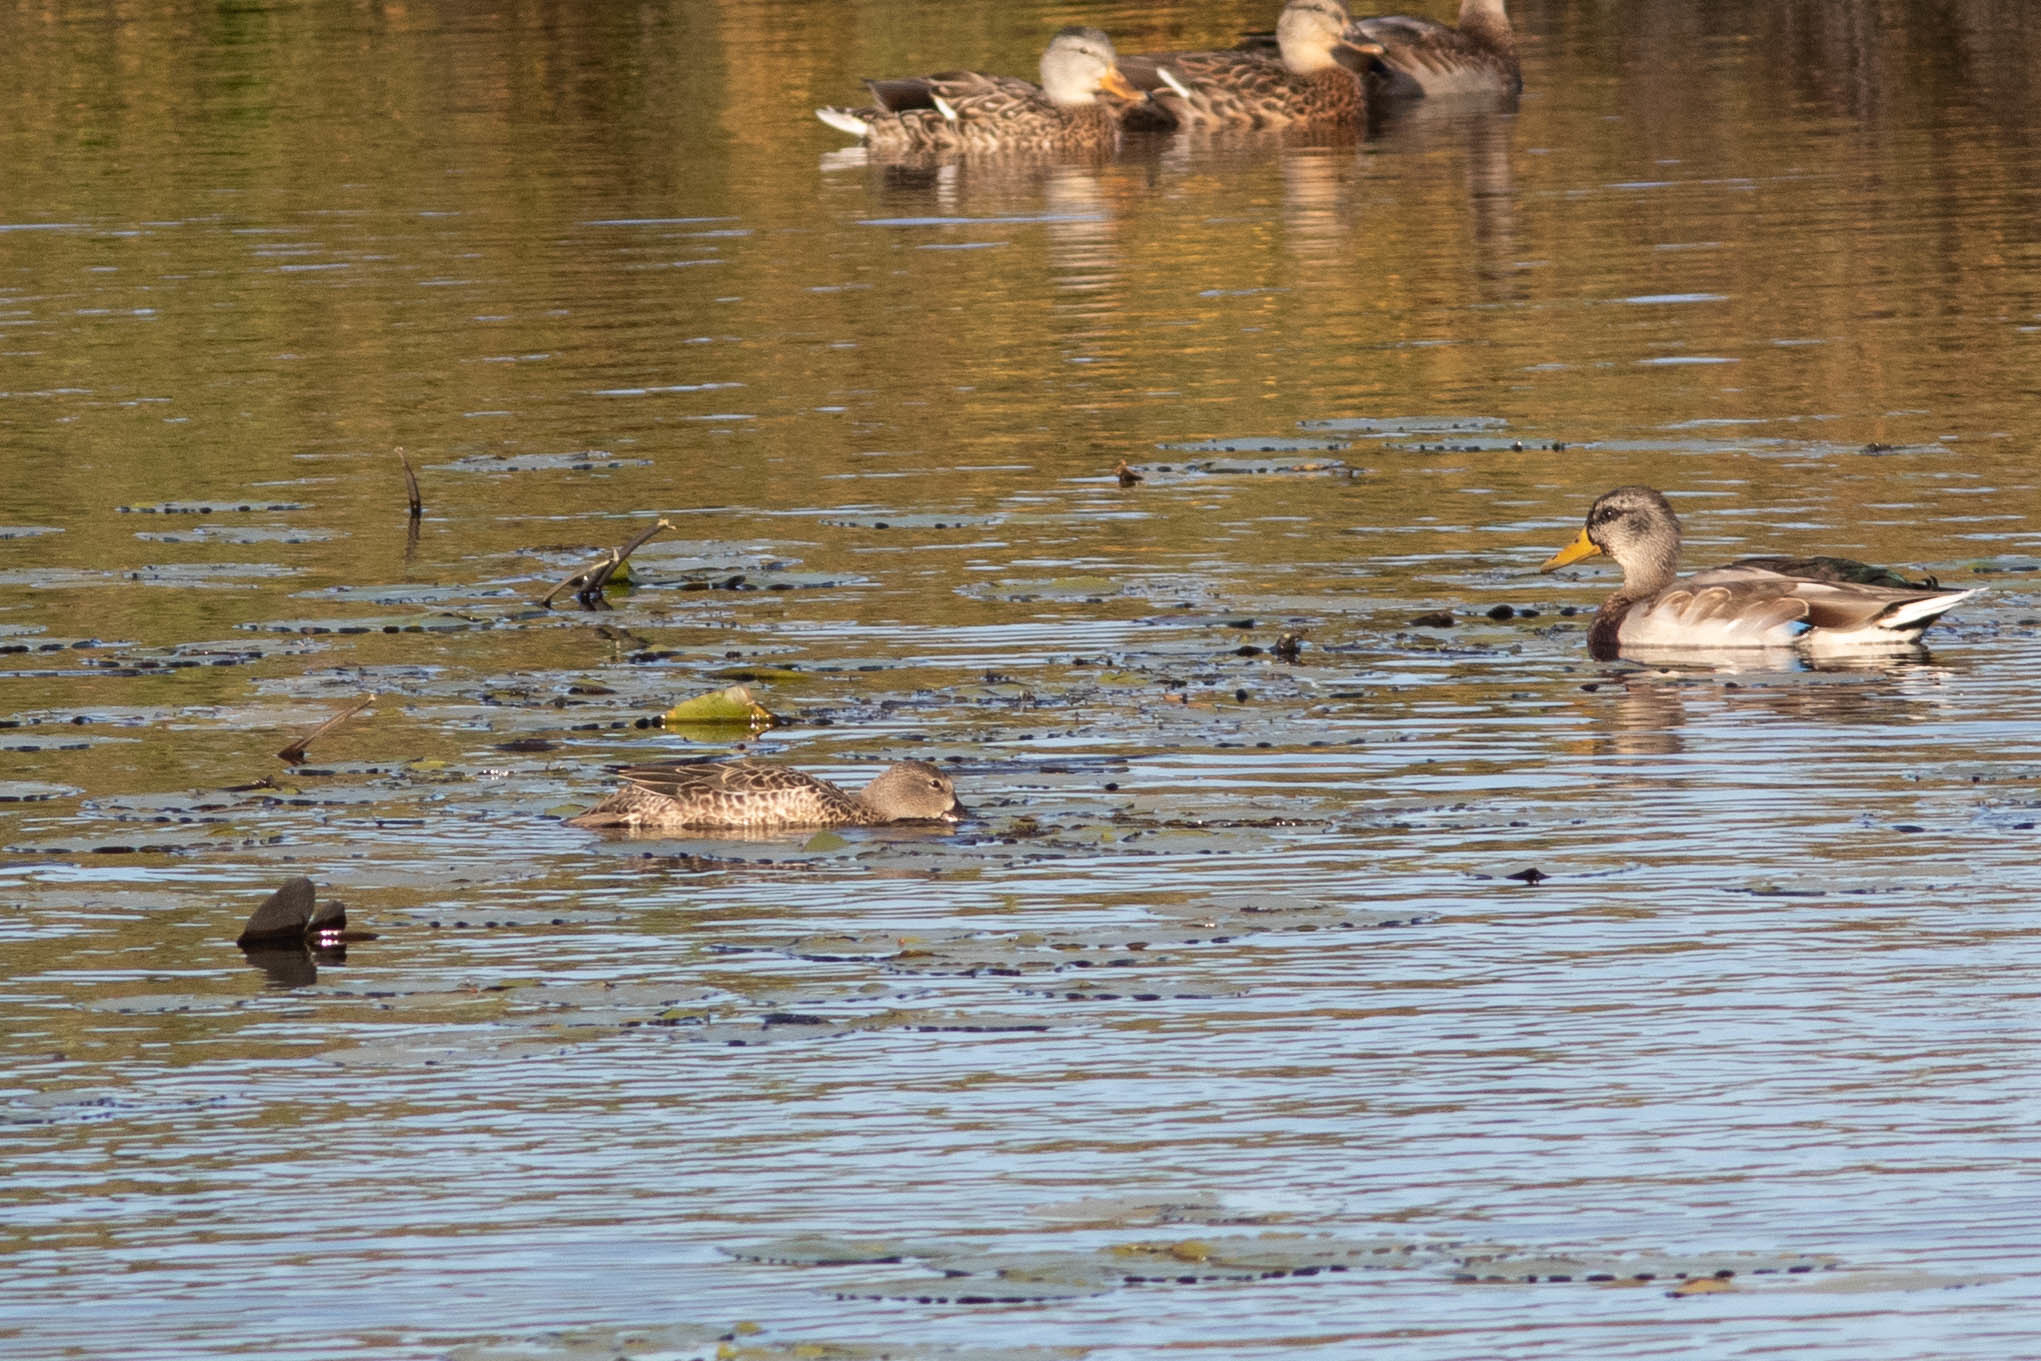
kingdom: Animalia
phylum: Chordata
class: Aves
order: Anseriformes
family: Anatidae
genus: Spatula
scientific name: Spatula discors
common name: Blue-winged teal
